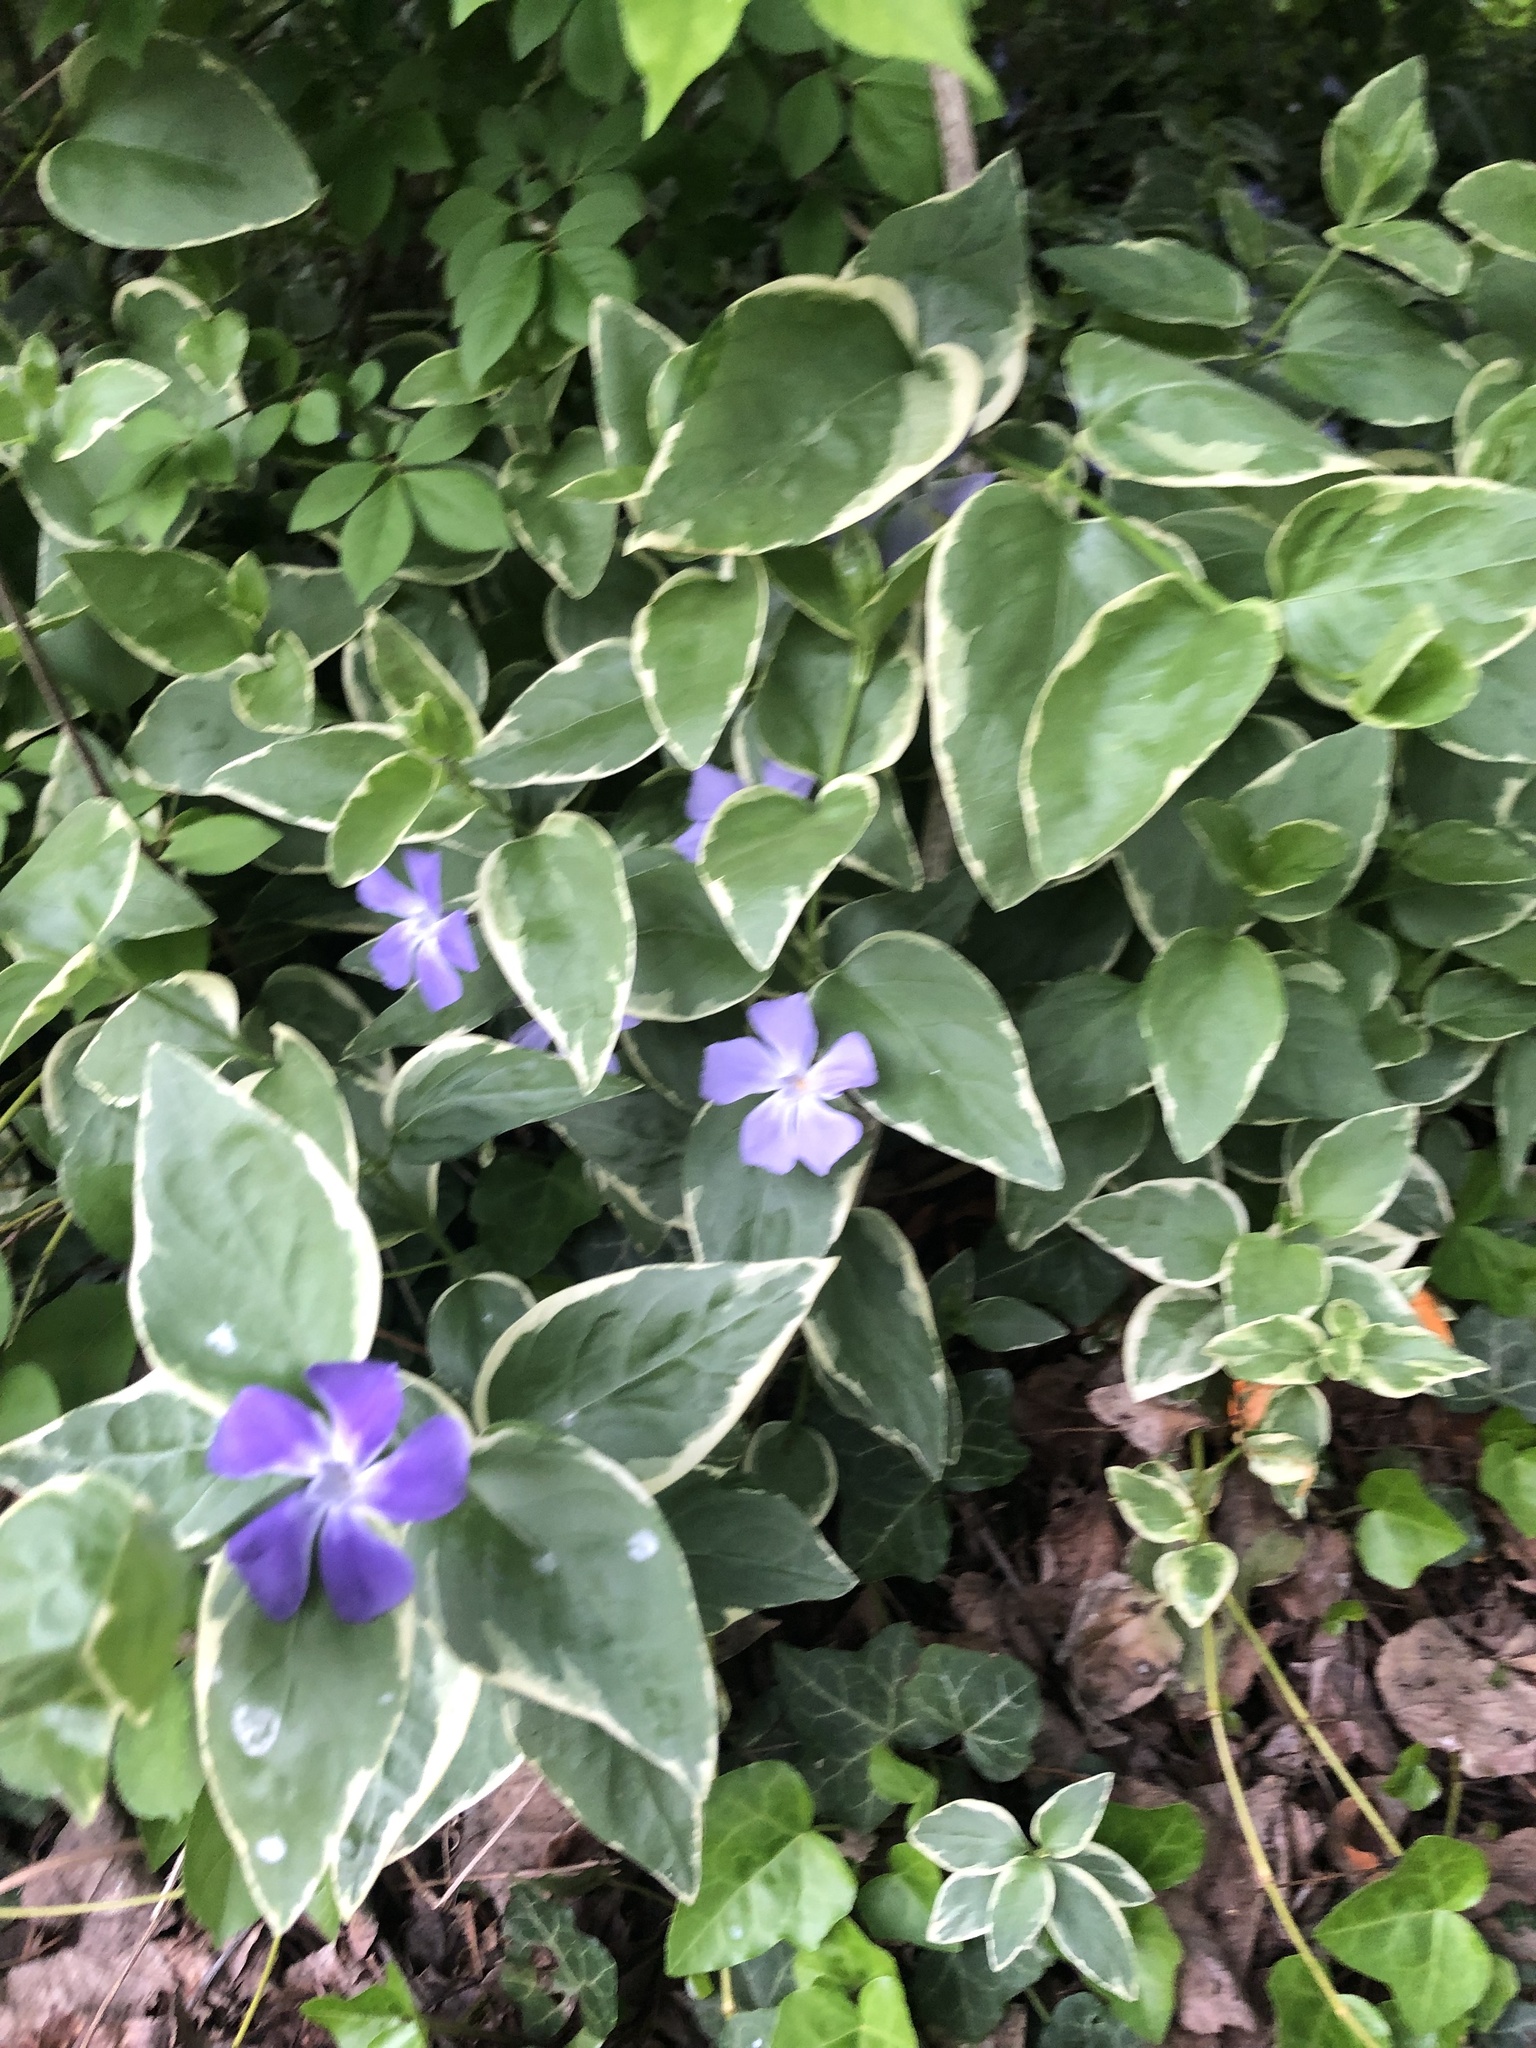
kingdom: Plantae
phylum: Tracheophyta
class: Magnoliopsida
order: Gentianales
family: Apocynaceae
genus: Vinca
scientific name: Vinca major
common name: Greater periwinkle
